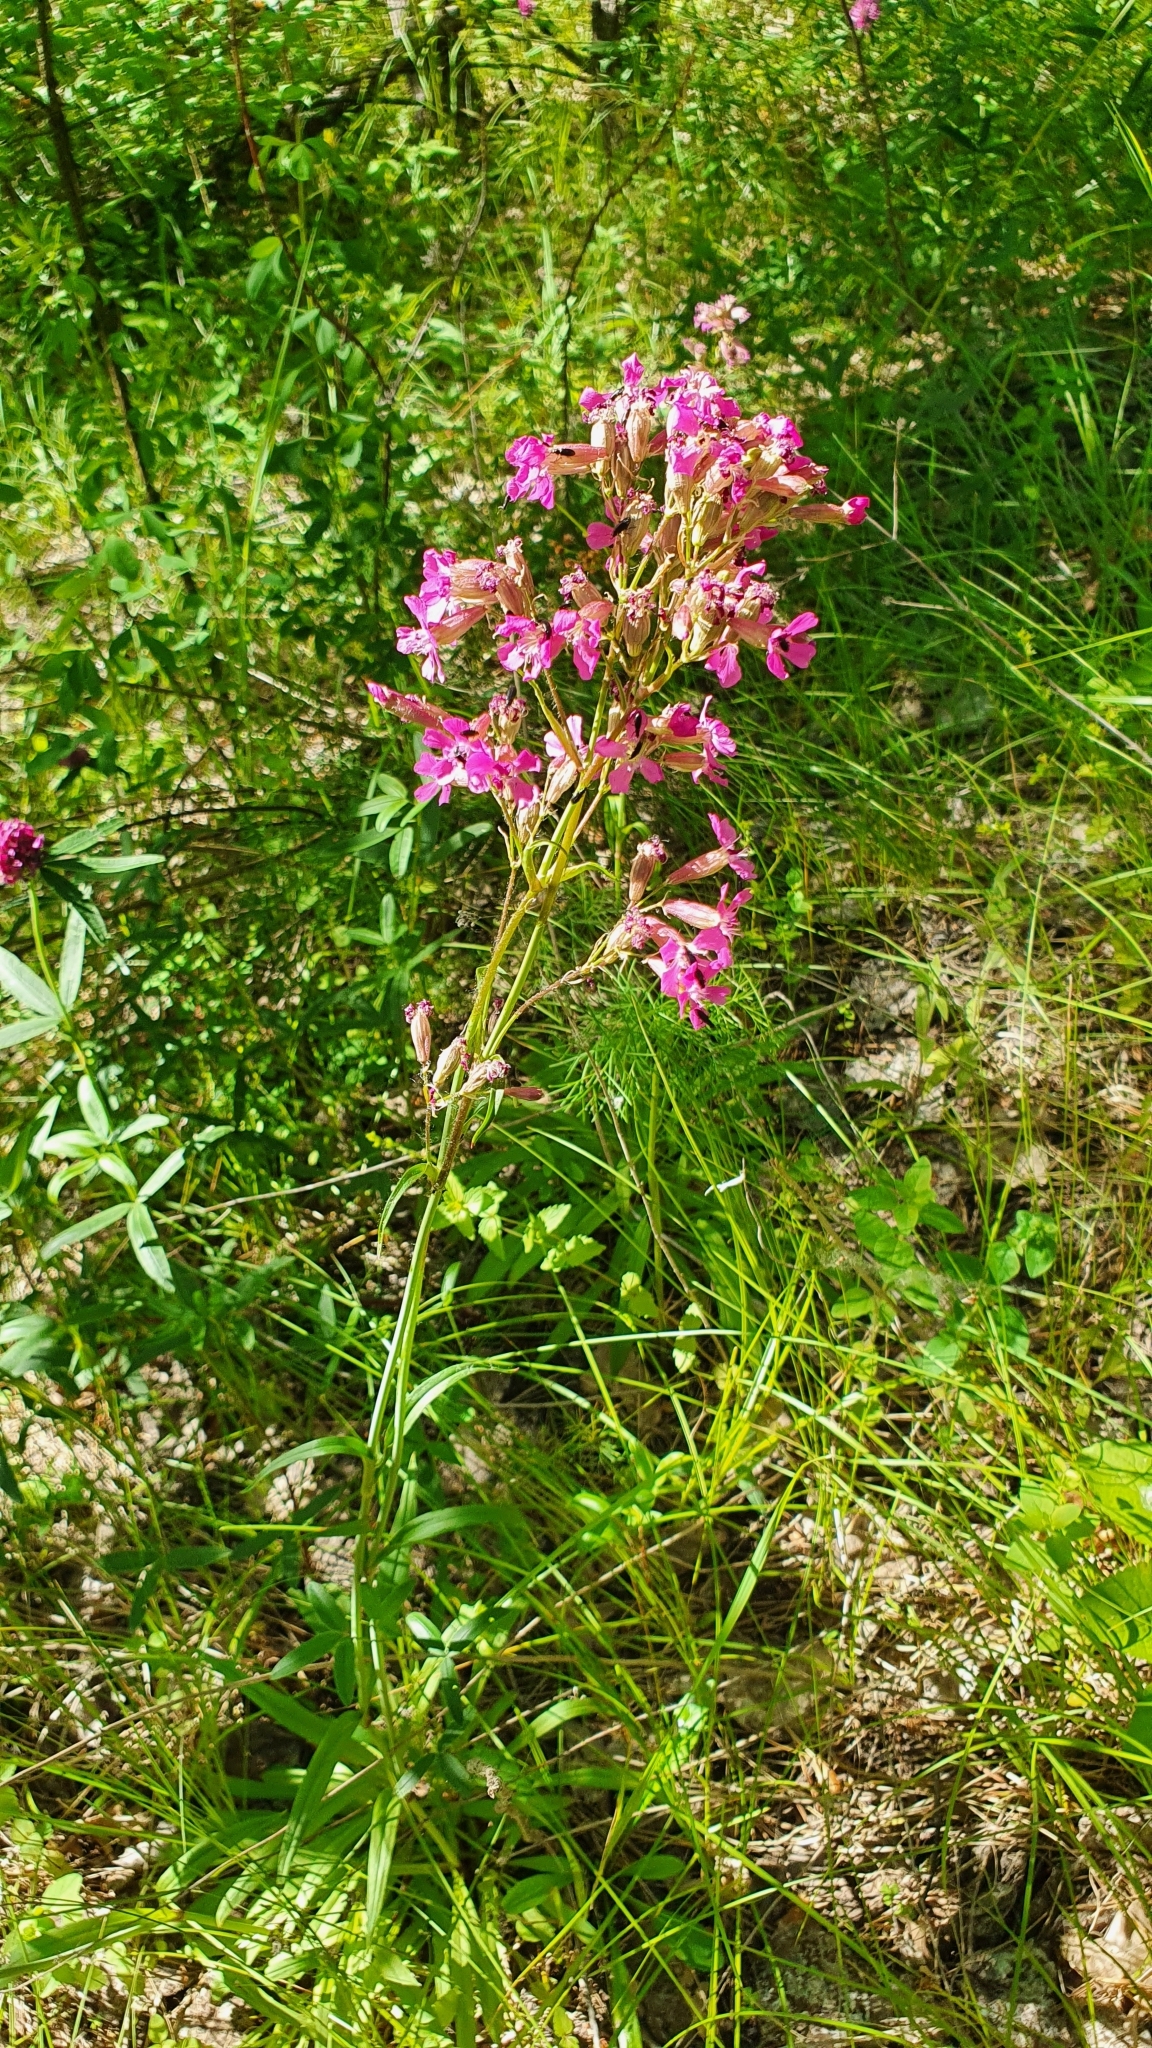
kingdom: Plantae
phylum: Tracheophyta
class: Magnoliopsida
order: Caryophyllales
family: Caryophyllaceae
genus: Viscaria
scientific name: Viscaria vulgaris
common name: Clammy campion
